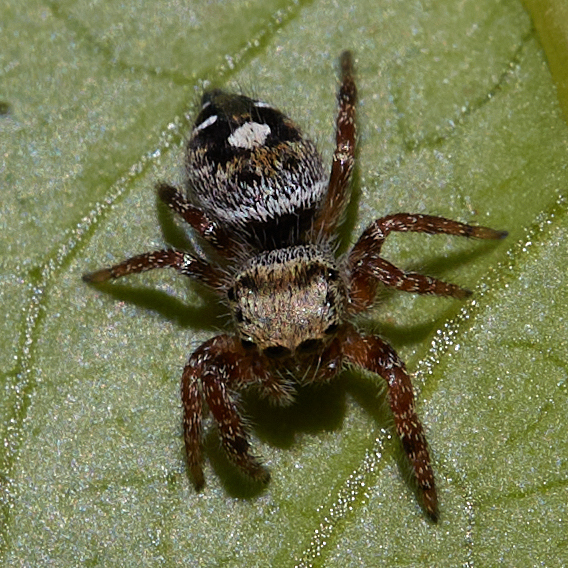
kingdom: Animalia
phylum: Arthropoda
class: Arachnida
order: Araneae
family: Salticidae
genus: Phidippus
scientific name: Phidippus audax
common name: Bold jumper
